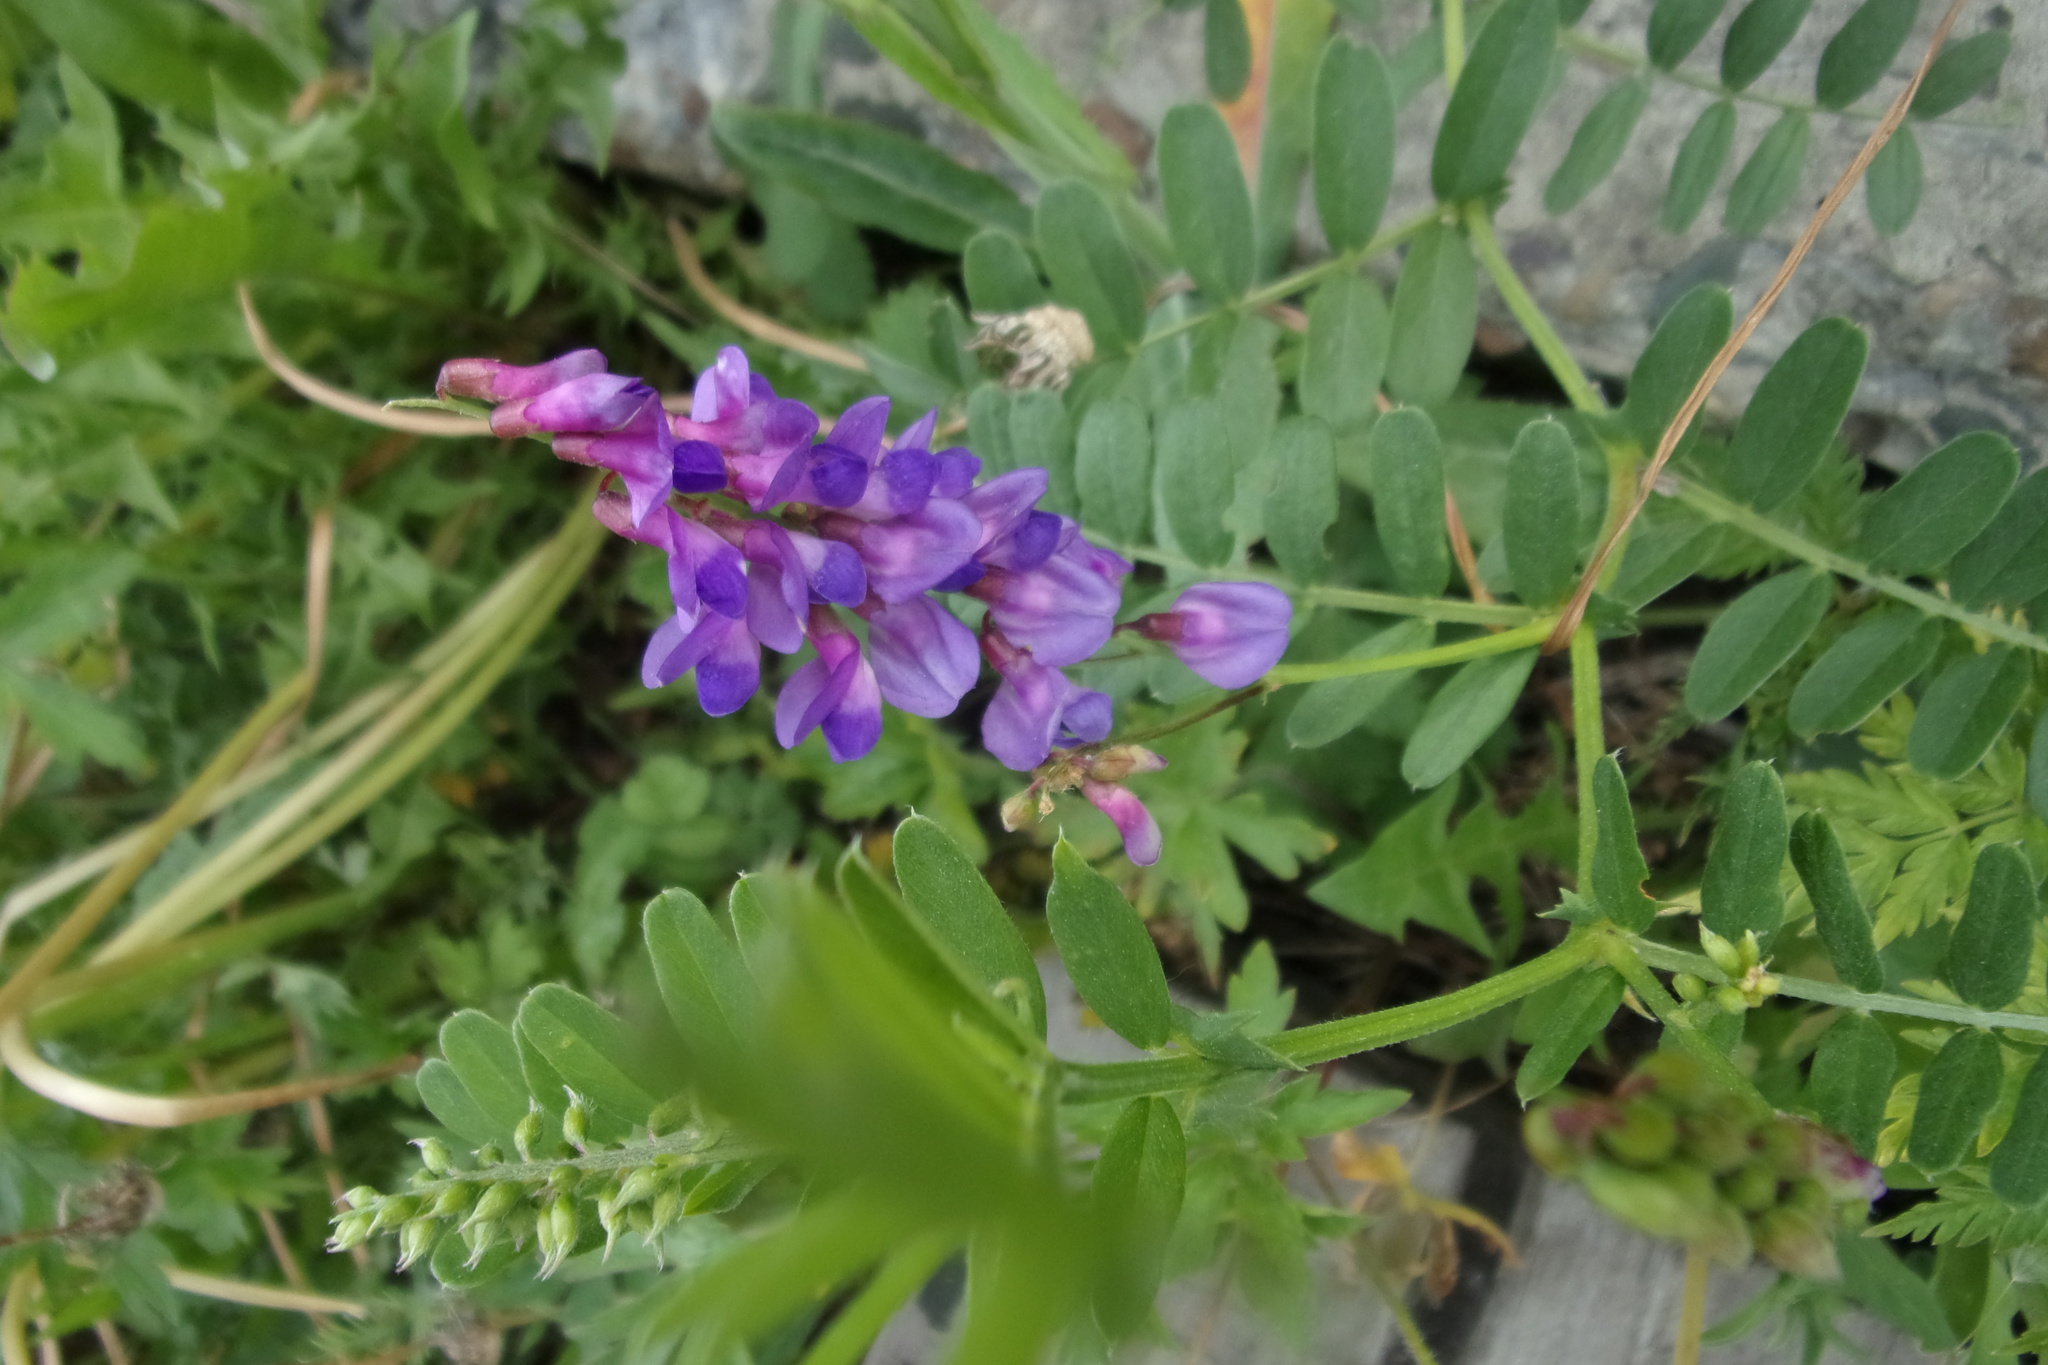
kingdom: Plantae
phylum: Tracheophyta
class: Magnoliopsida
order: Fabales
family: Fabaceae
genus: Vicia
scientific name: Vicia amoena
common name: Cheder ebs
